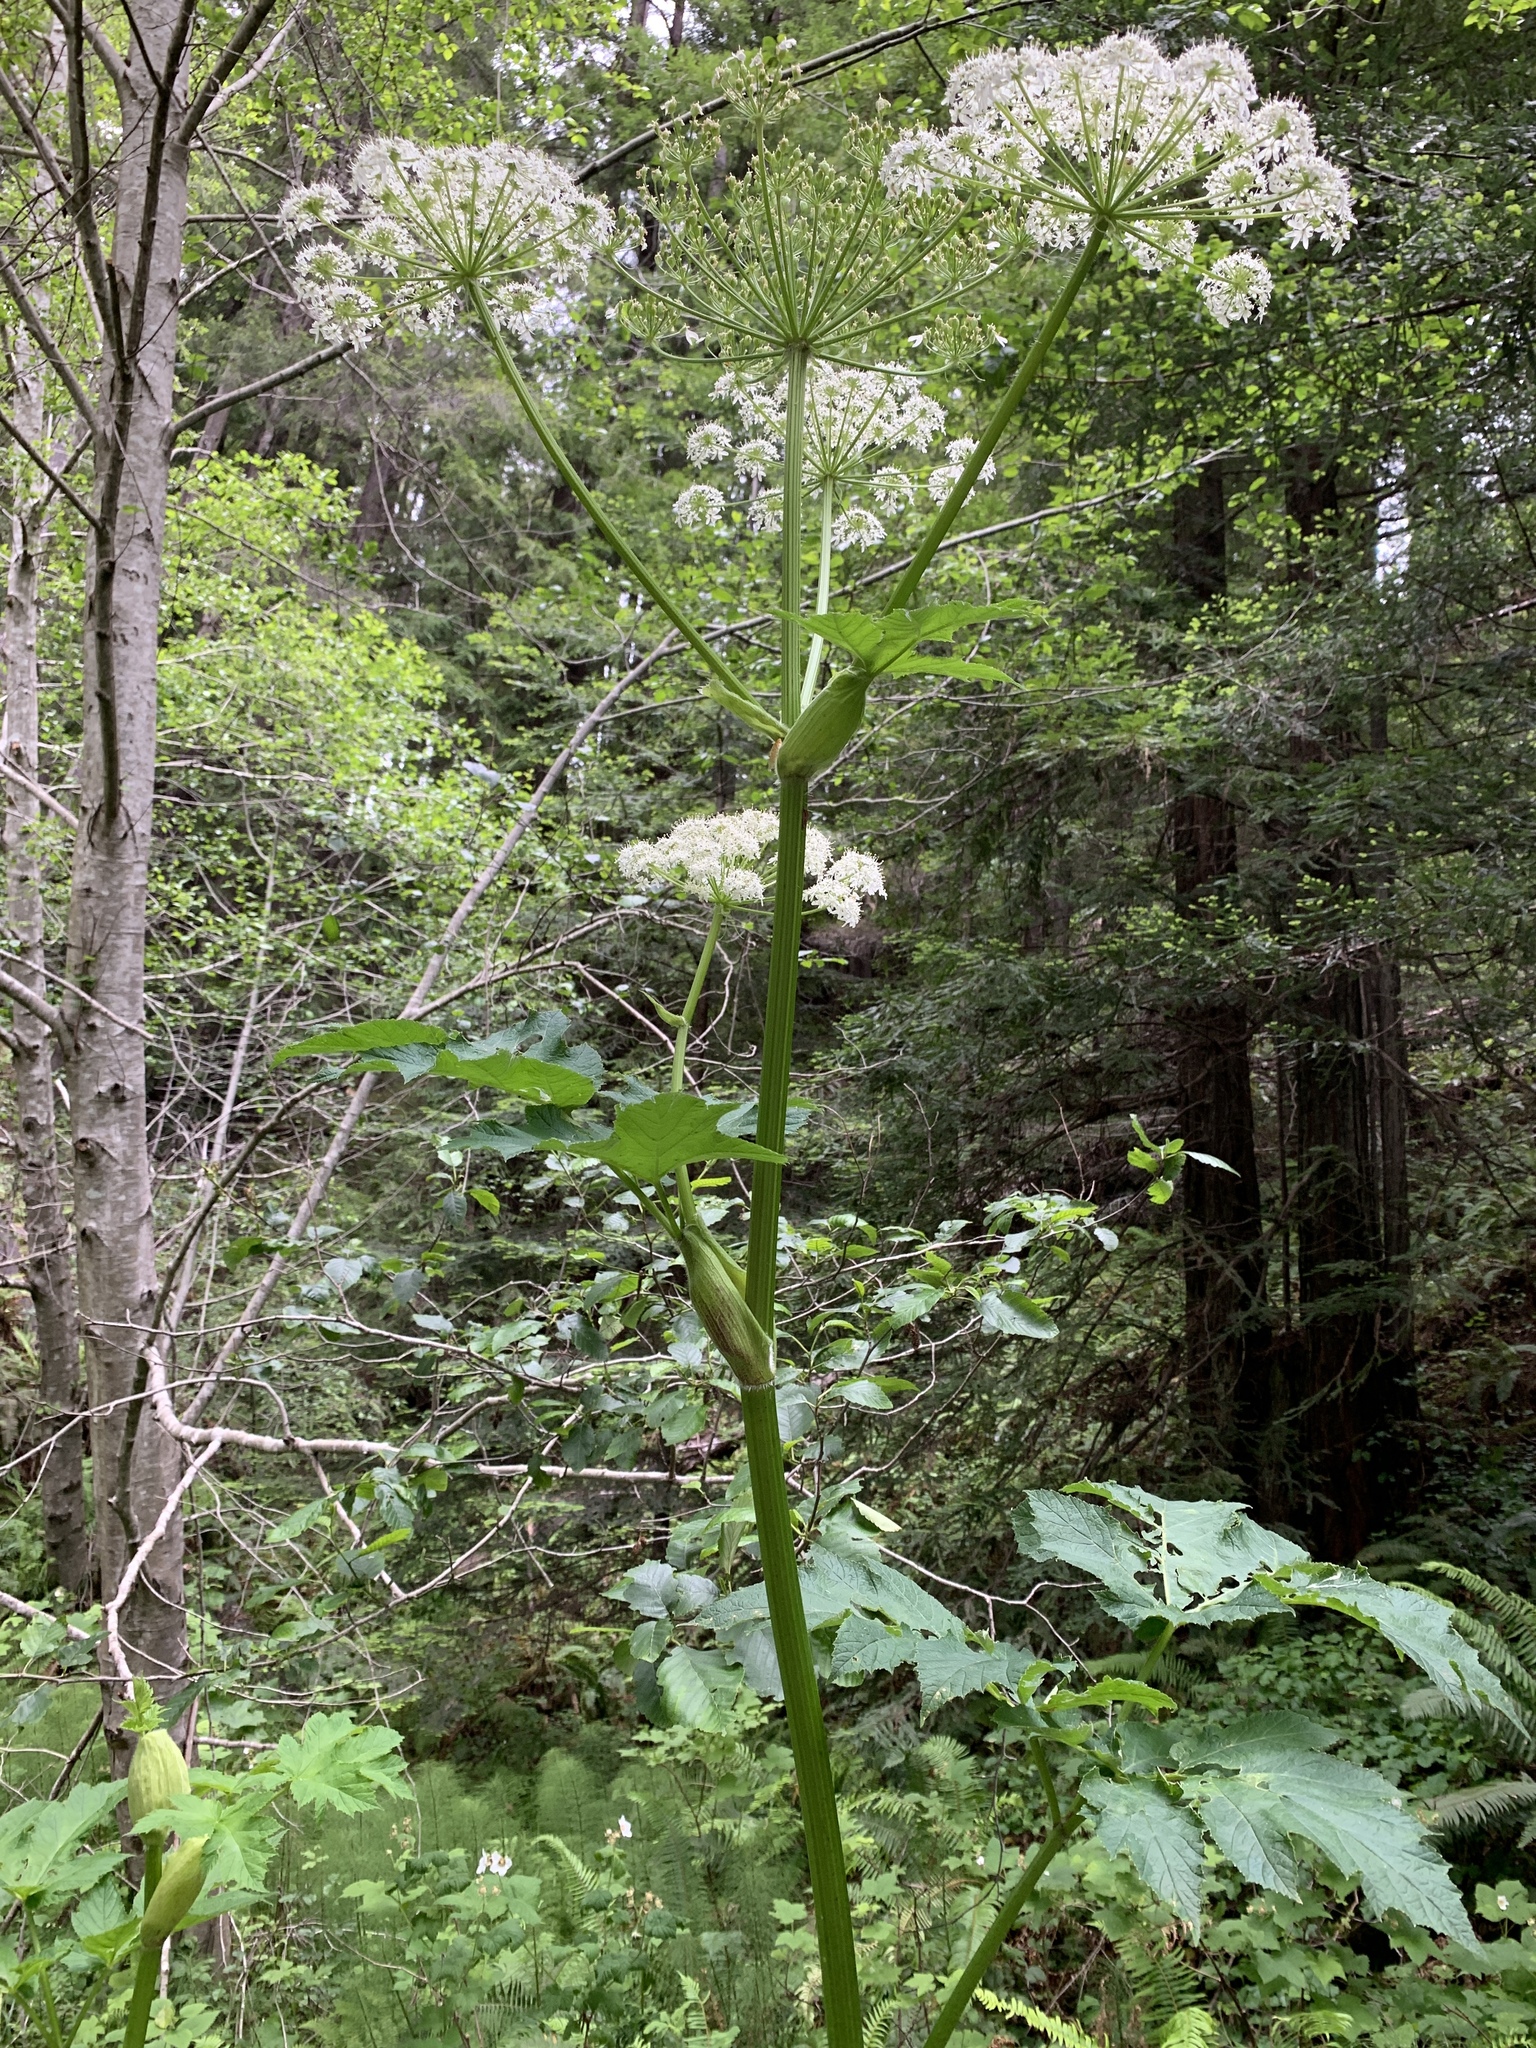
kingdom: Plantae
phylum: Tracheophyta
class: Magnoliopsida
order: Apiales
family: Apiaceae
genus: Heracleum
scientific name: Heracleum maximum
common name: American cow parsnip
